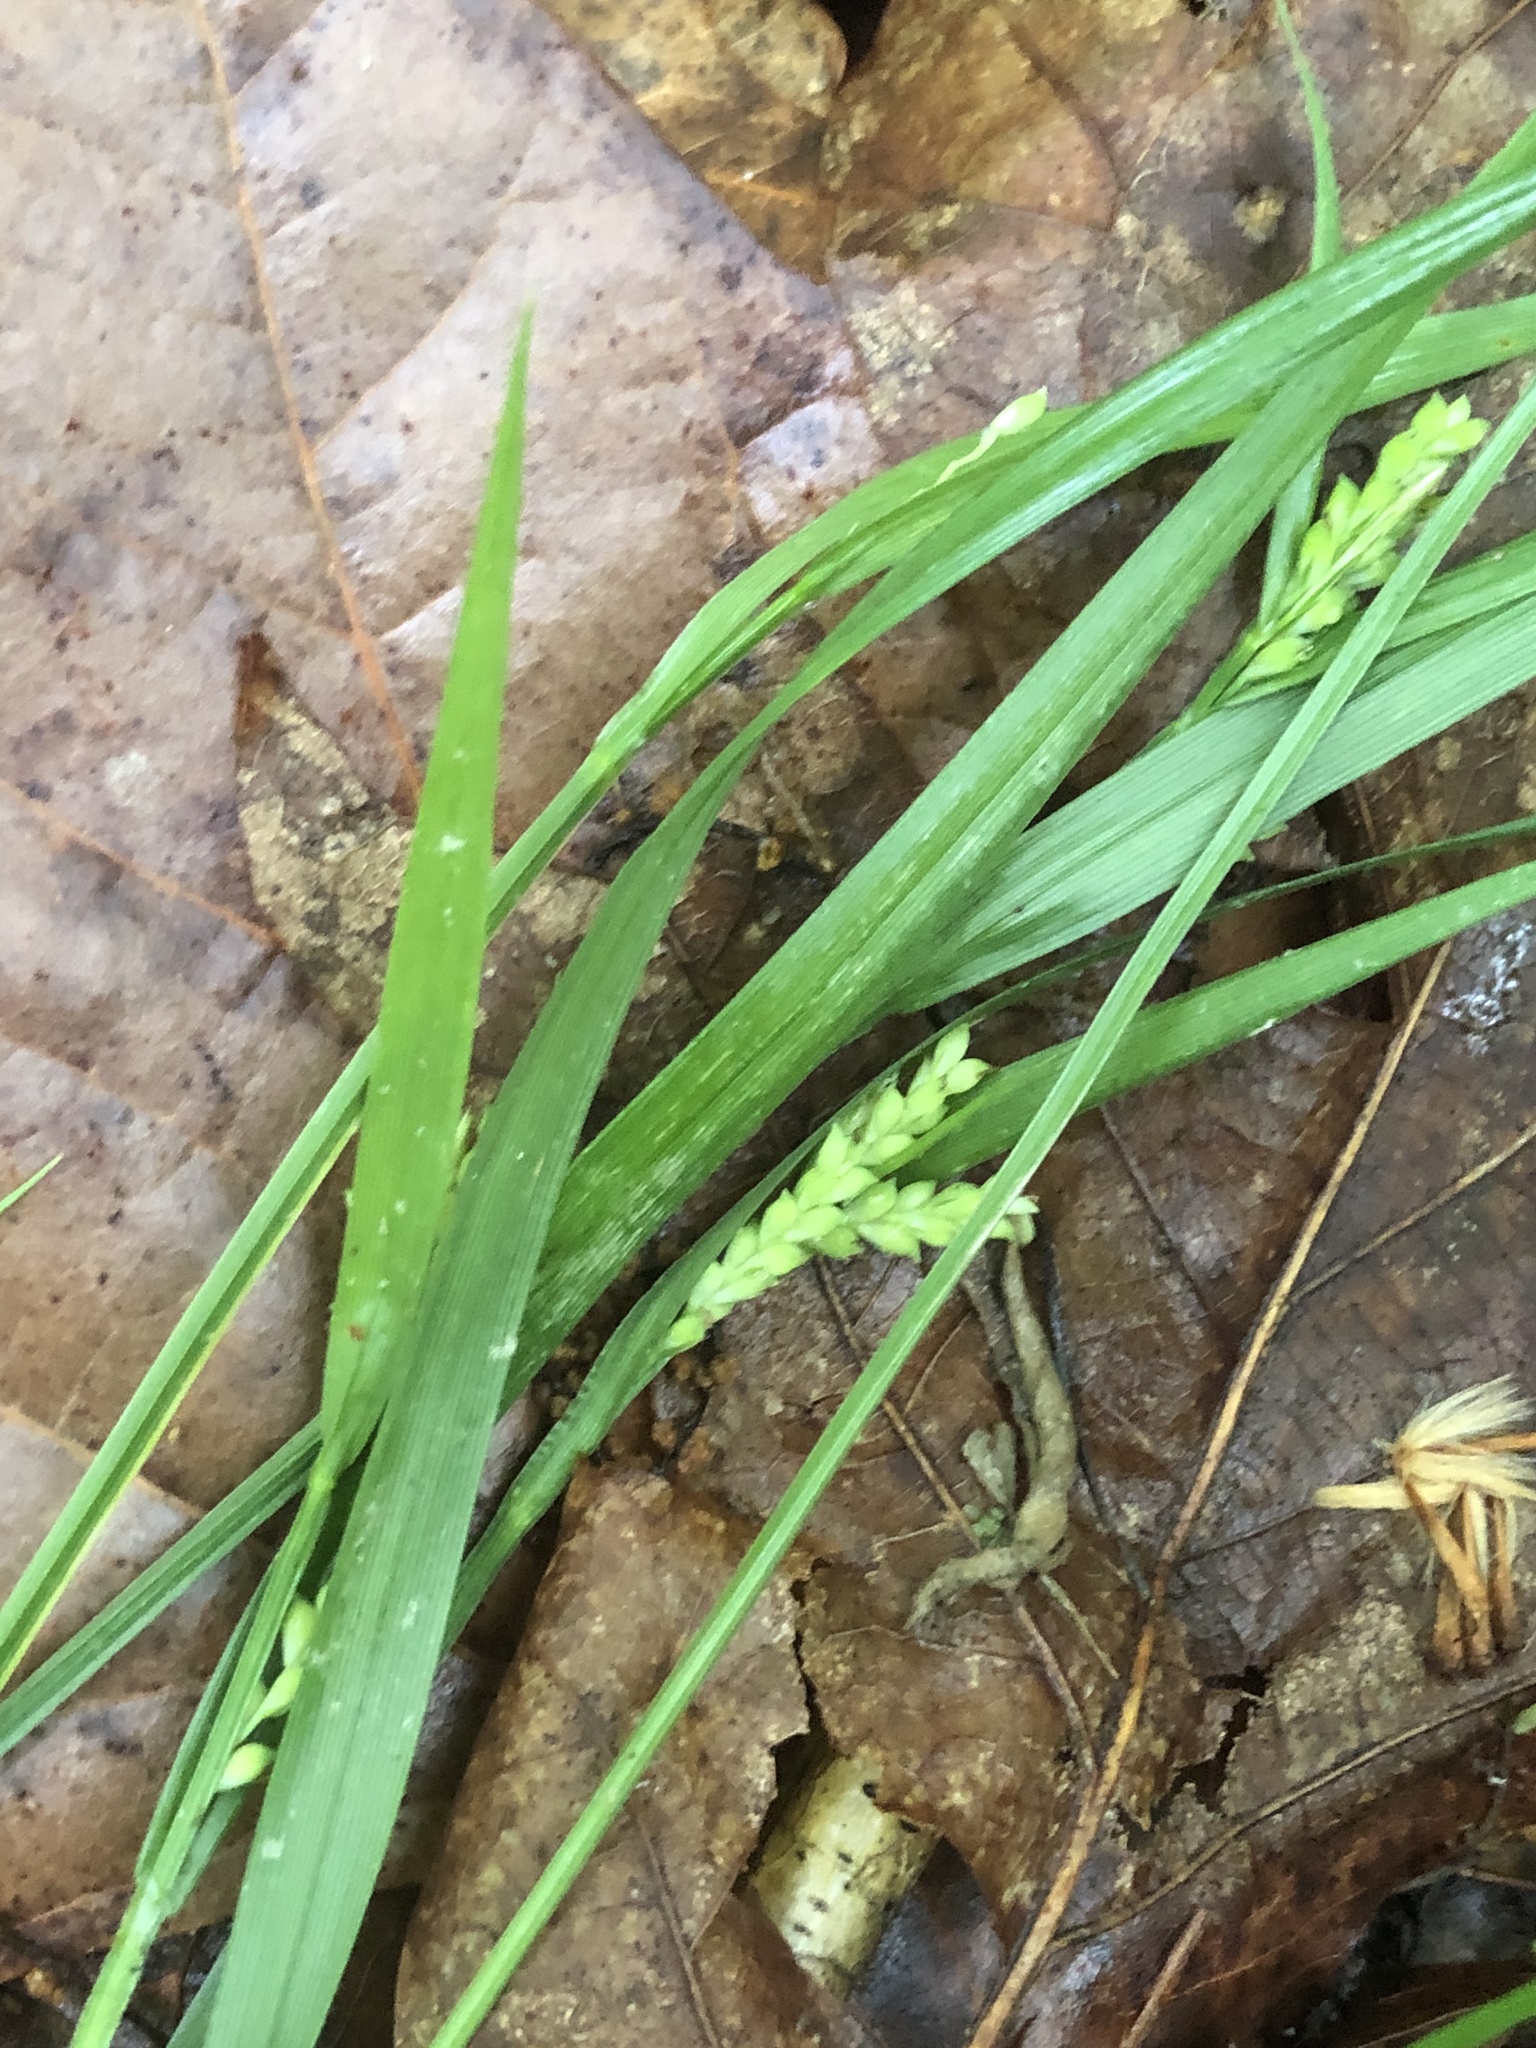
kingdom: Plantae
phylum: Tracheophyta
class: Liliopsida
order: Poales
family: Cyperaceae
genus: Carex
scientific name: Carex kraliana
